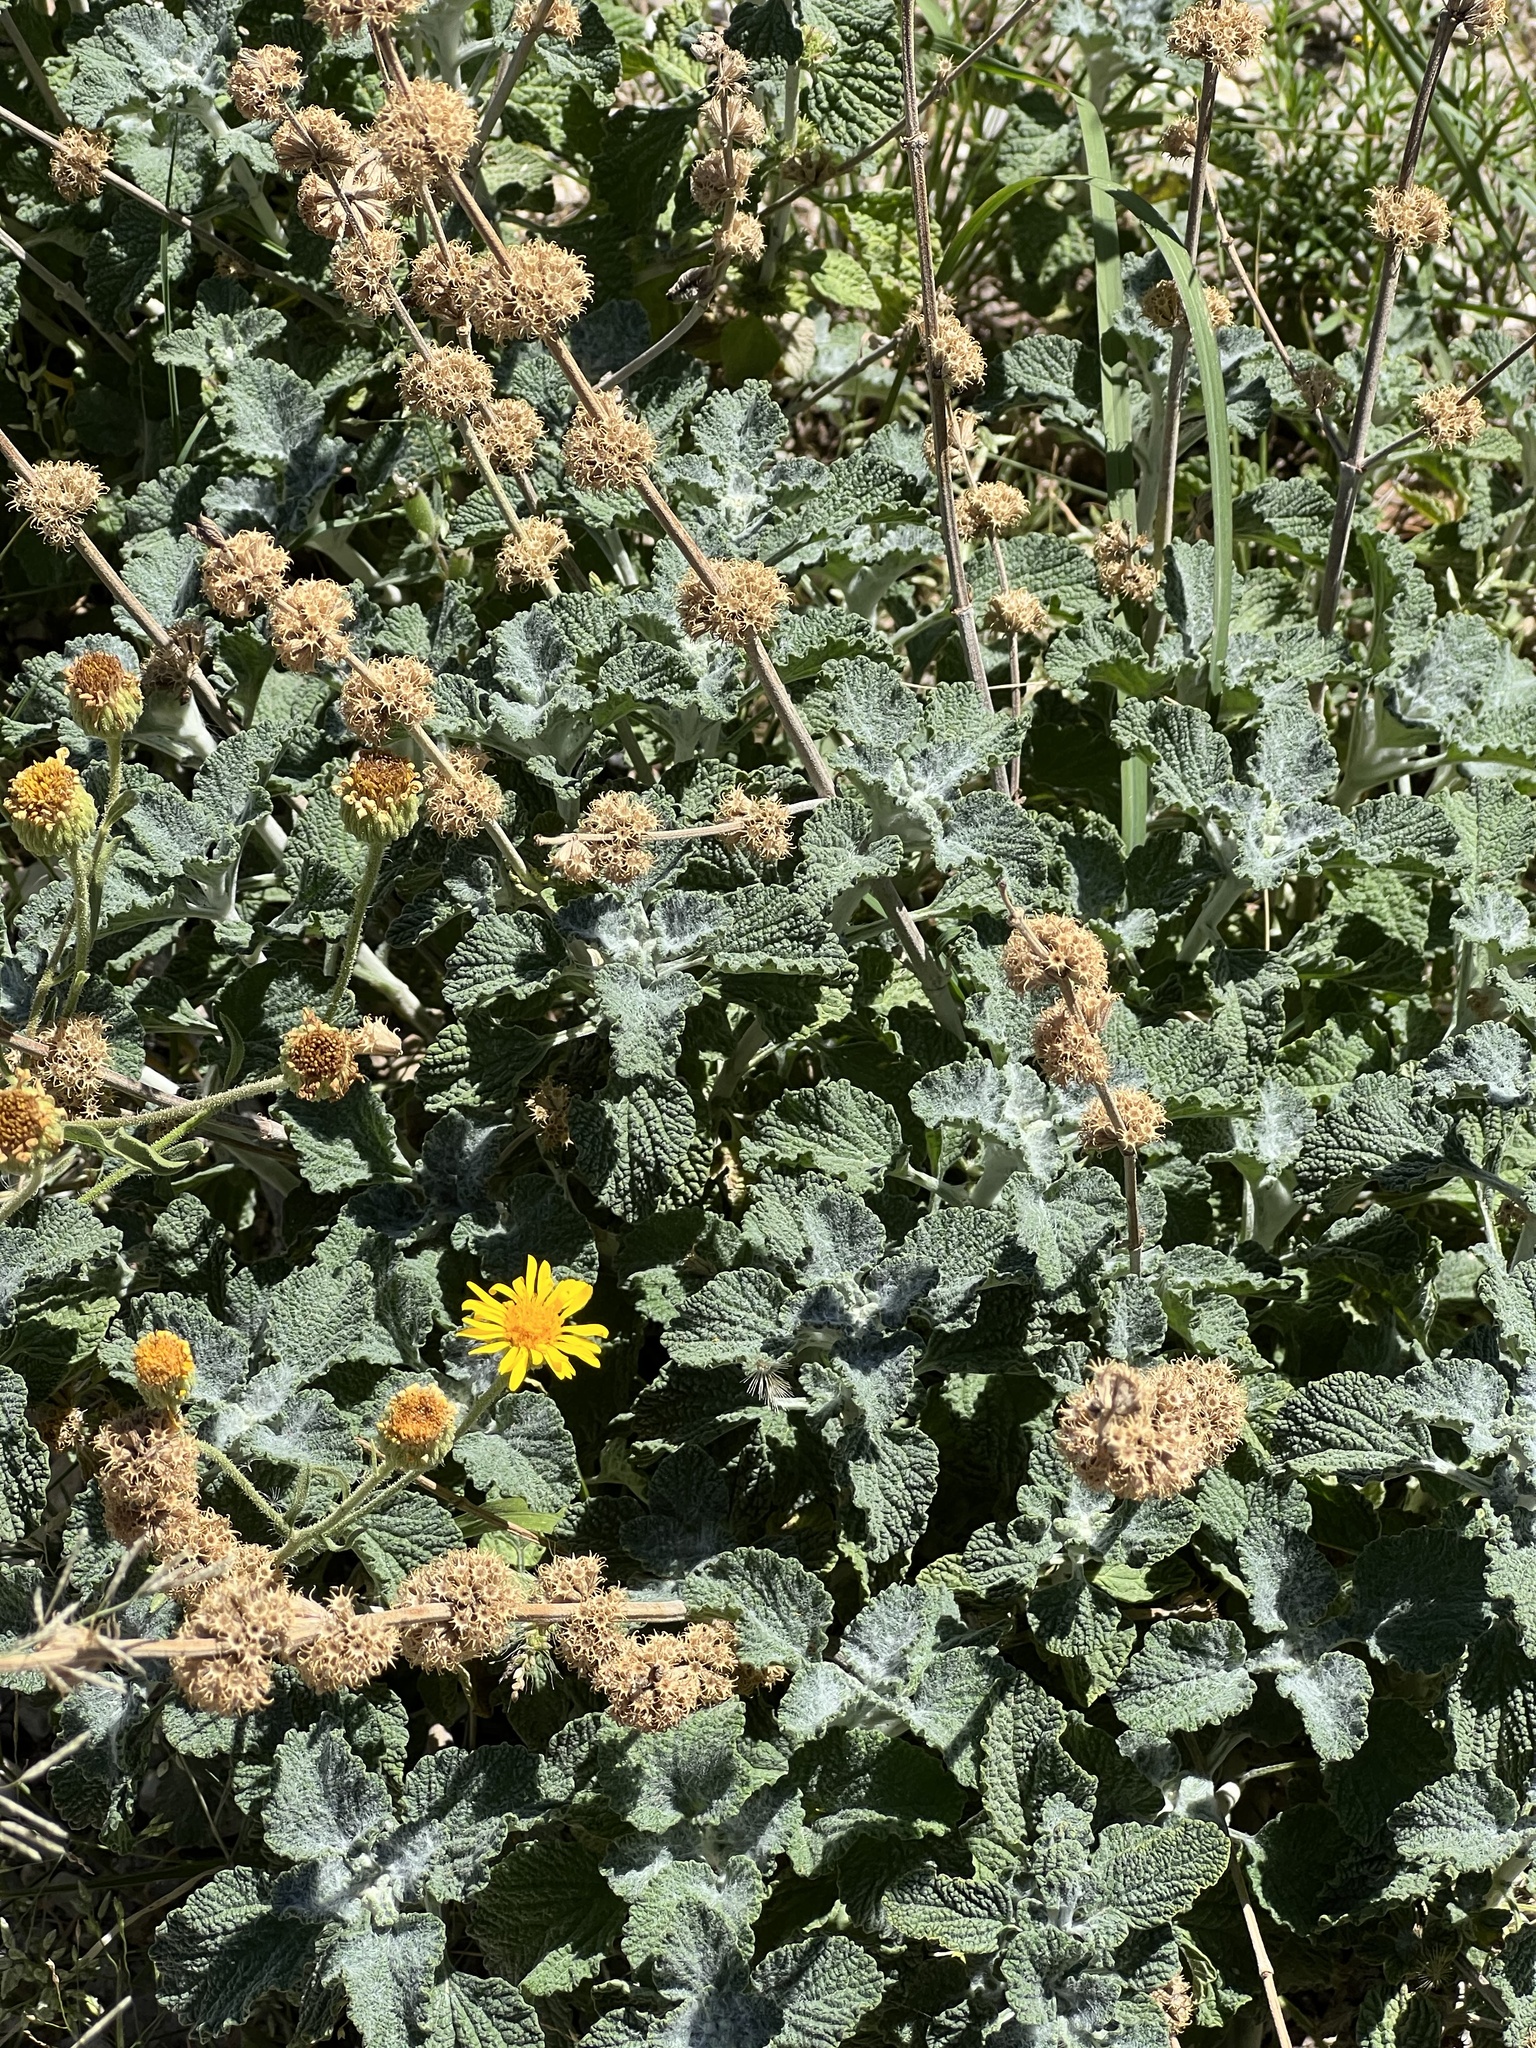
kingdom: Plantae
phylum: Tracheophyta
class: Magnoliopsida
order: Lamiales
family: Lamiaceae
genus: Marrubium
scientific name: Marrubium vulgare
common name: Horehound
